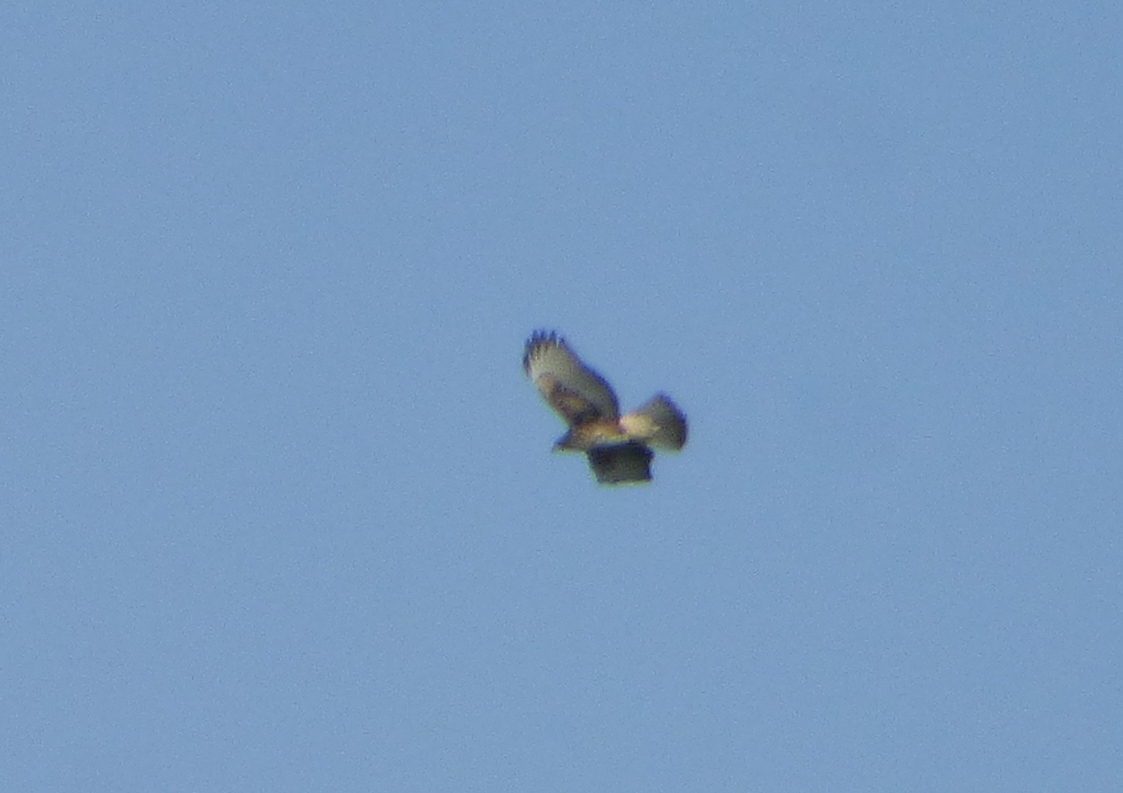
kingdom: Animalia
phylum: Chordata
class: Aves
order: Accipitriformes
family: Accipitridae
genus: Parabuteo
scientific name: Parabuteo unicinctus
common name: Harris's hawk
